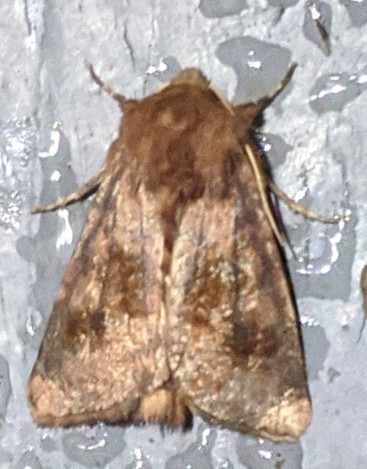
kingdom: Animalia
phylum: Arthropoda
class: Insecta
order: Lepidoptera
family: Noctuidae
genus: Nephelodes
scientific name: Nephelodes minians
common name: Bronzed cutworm
